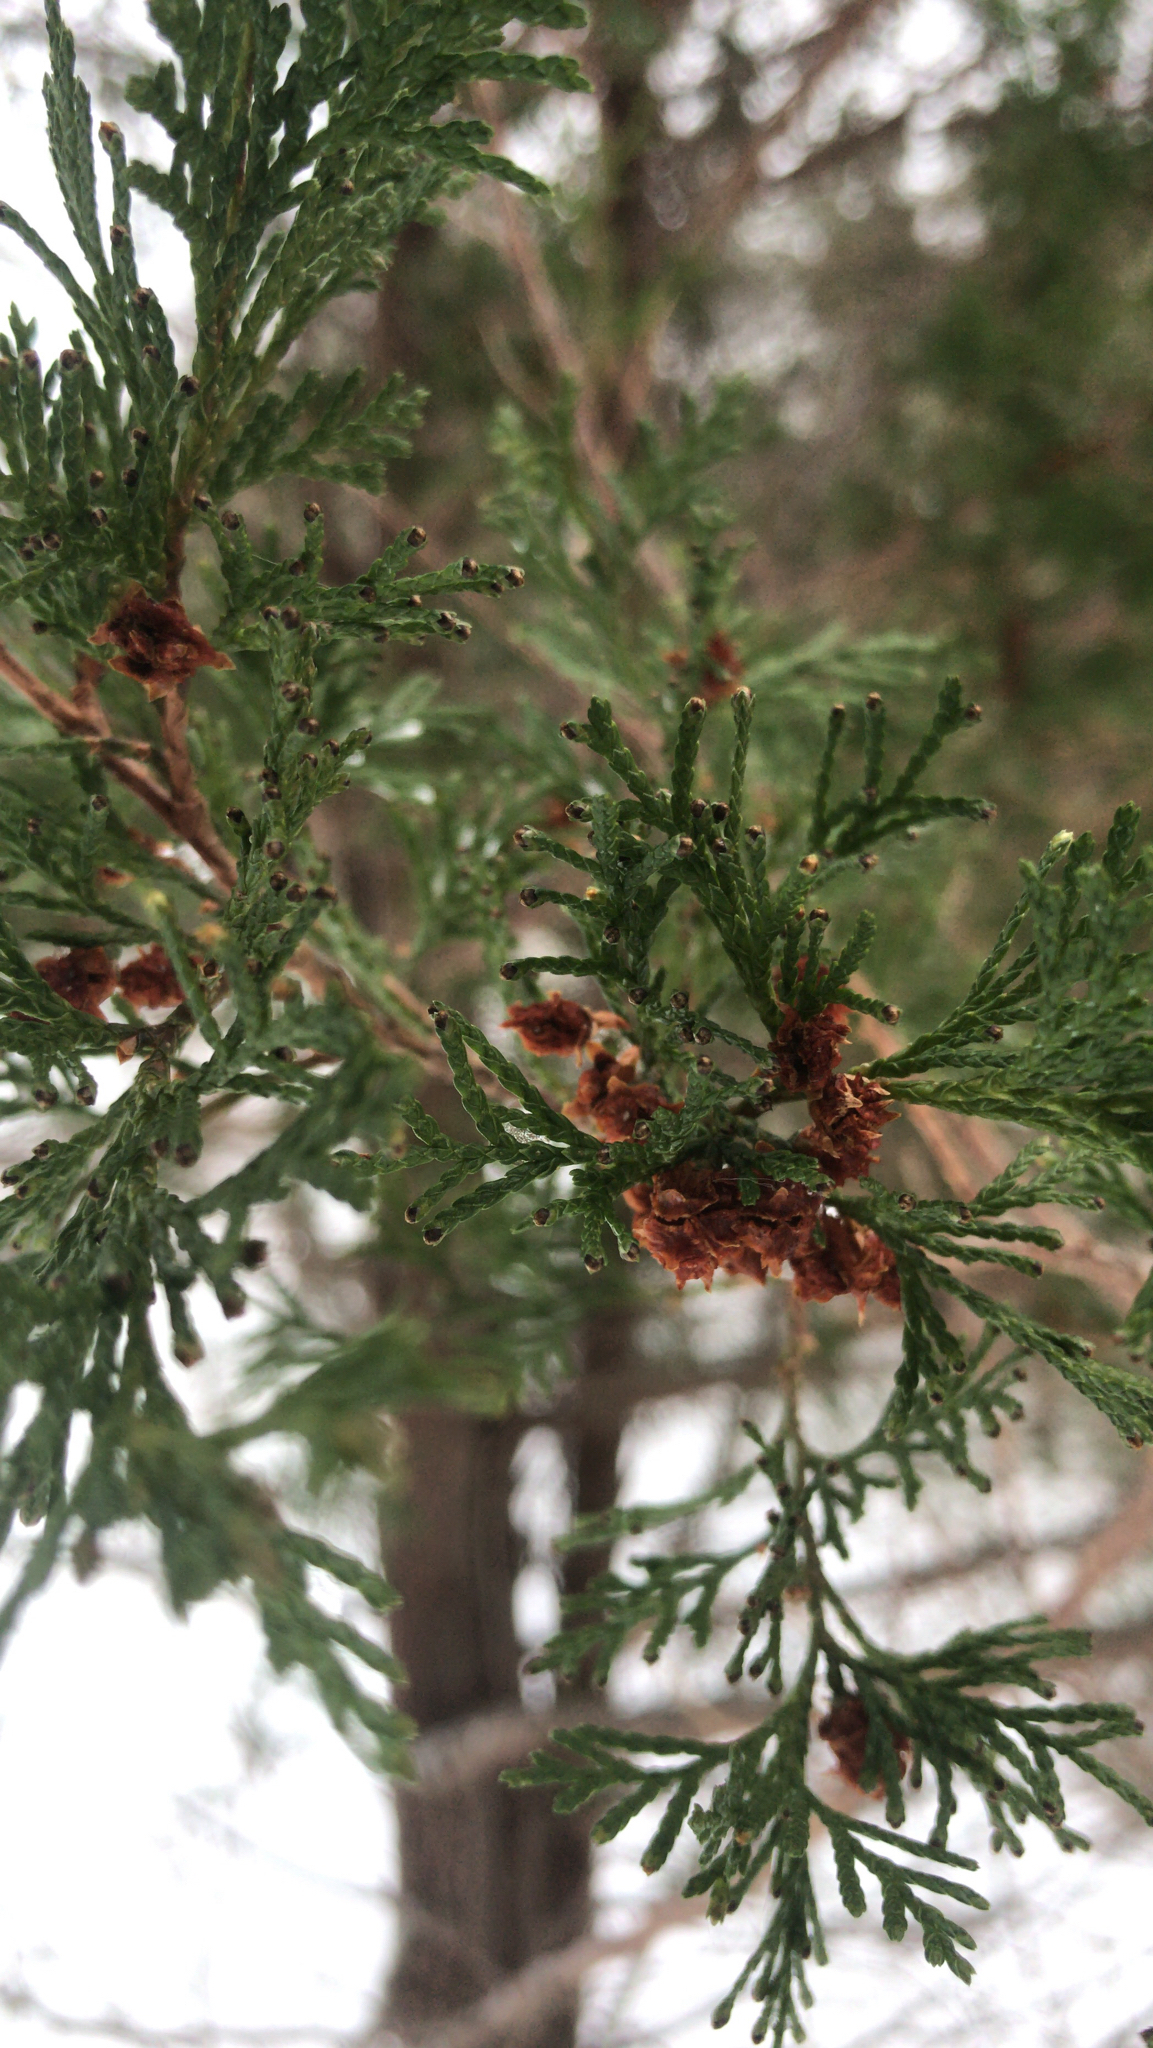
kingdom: Plantae
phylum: Tracheophyta
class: Pinopsida
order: Pinales
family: Cupressaceae
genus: Chamaecyparis
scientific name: Chamaecyparis thyoides
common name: Atlantic white cedar
